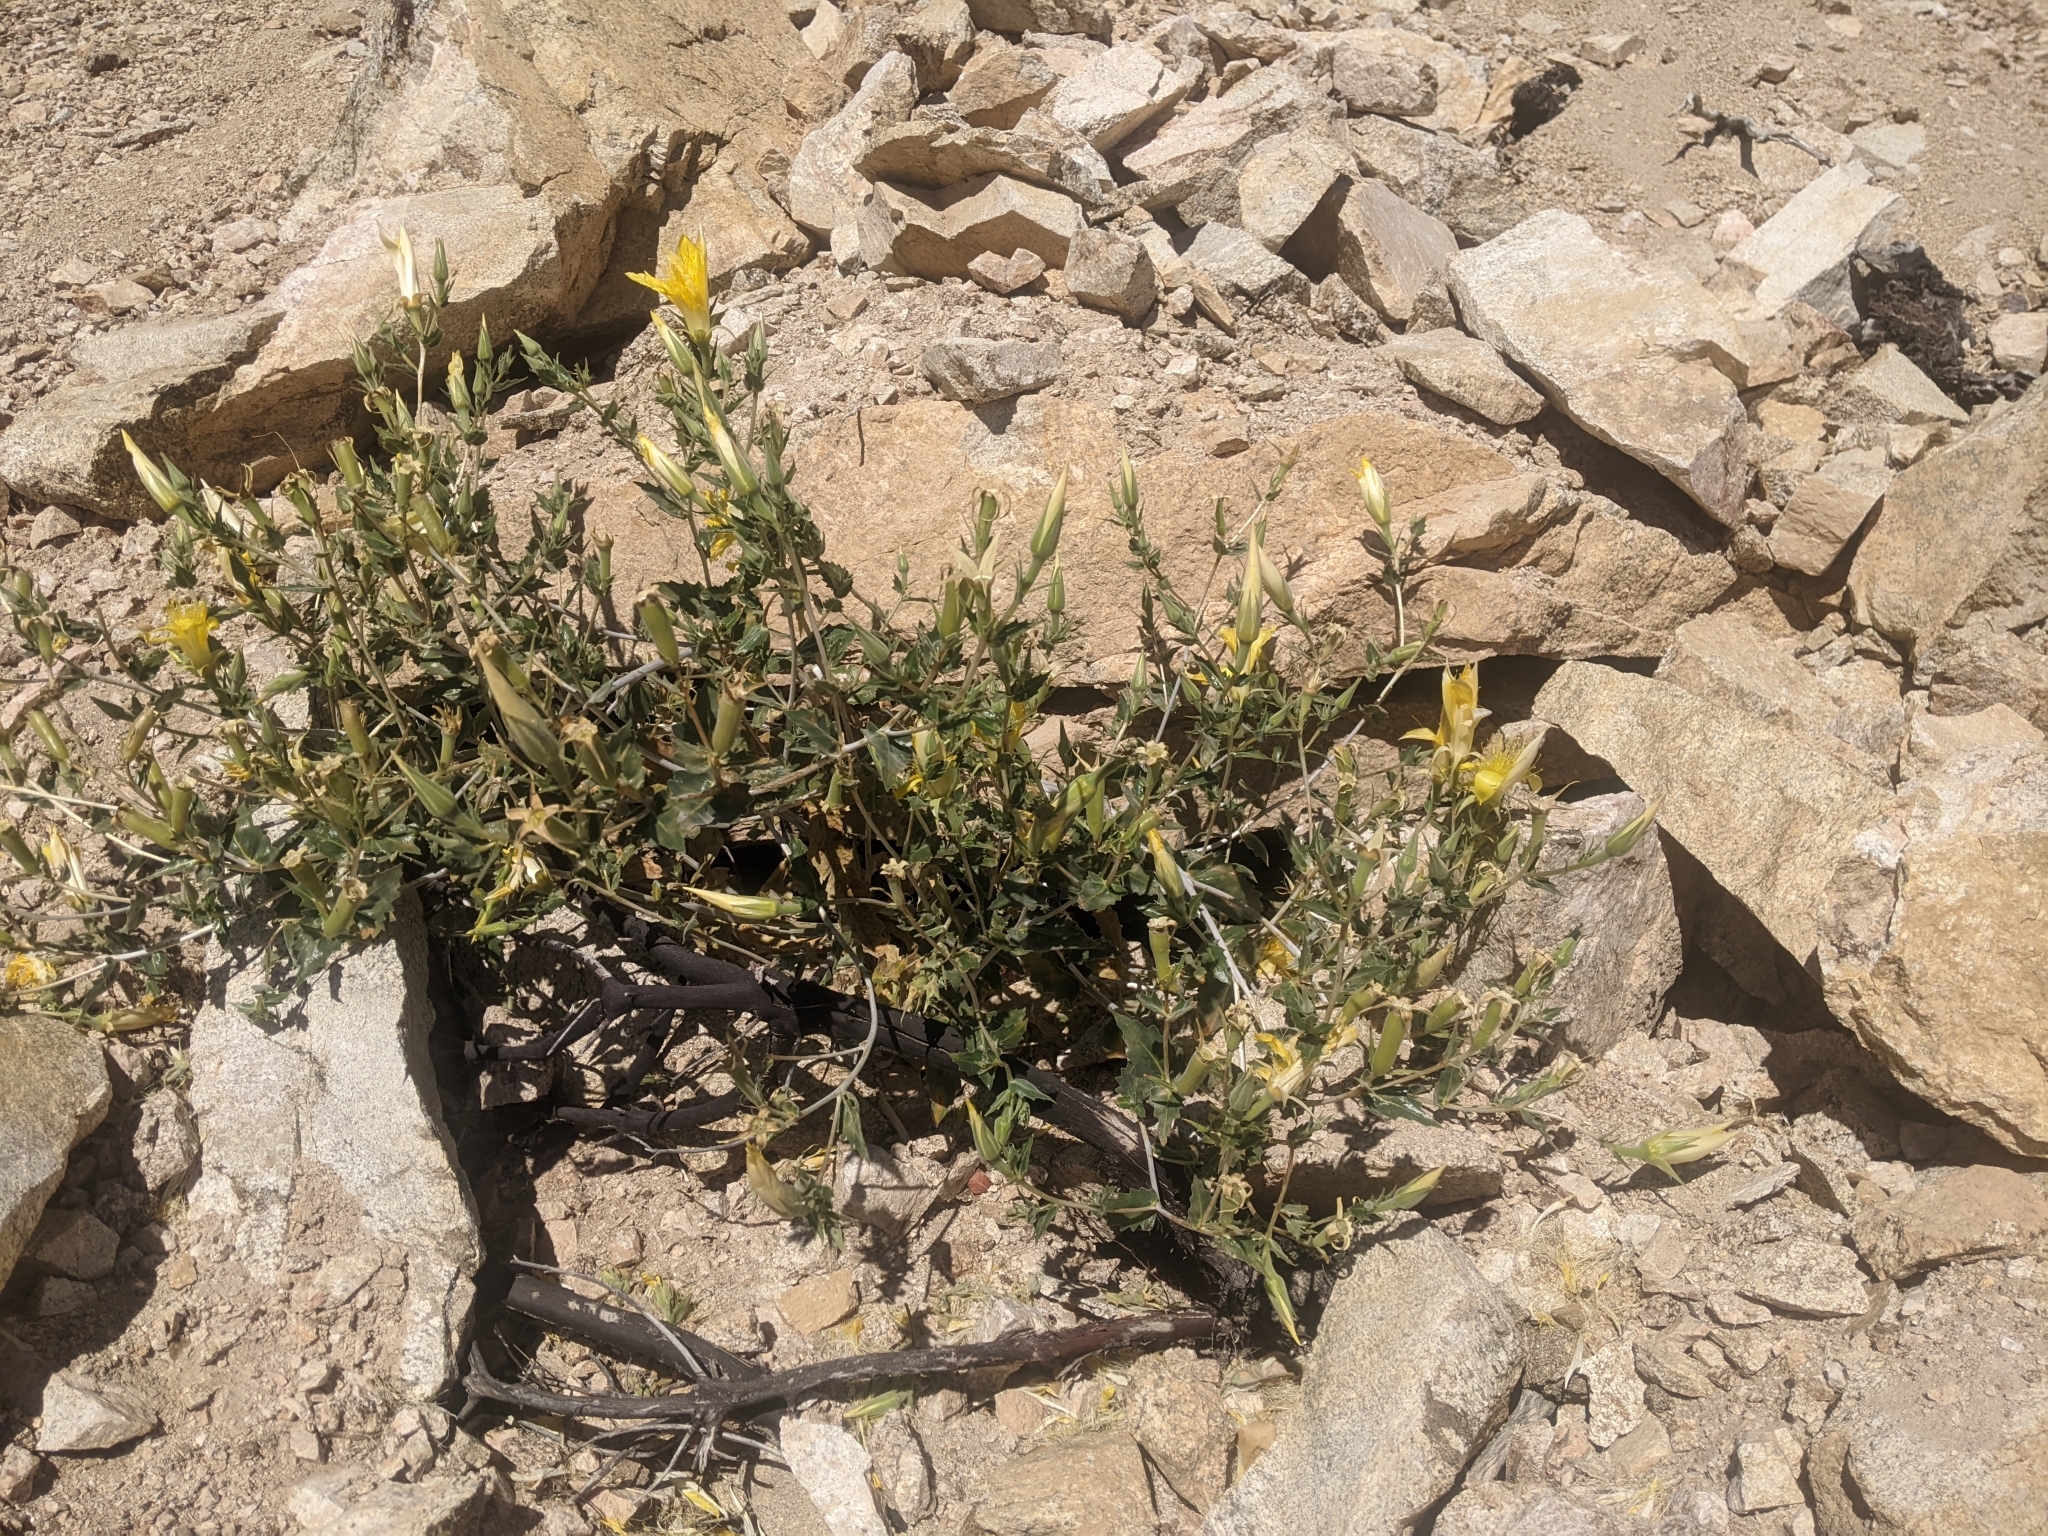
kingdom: Plantae
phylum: Tracheophyta
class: Magnoliopsida
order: Cornales
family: Loasaceae
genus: Mentzelia
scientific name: Mentzelia laevicaulis
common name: Smooth-stem blazingstar
